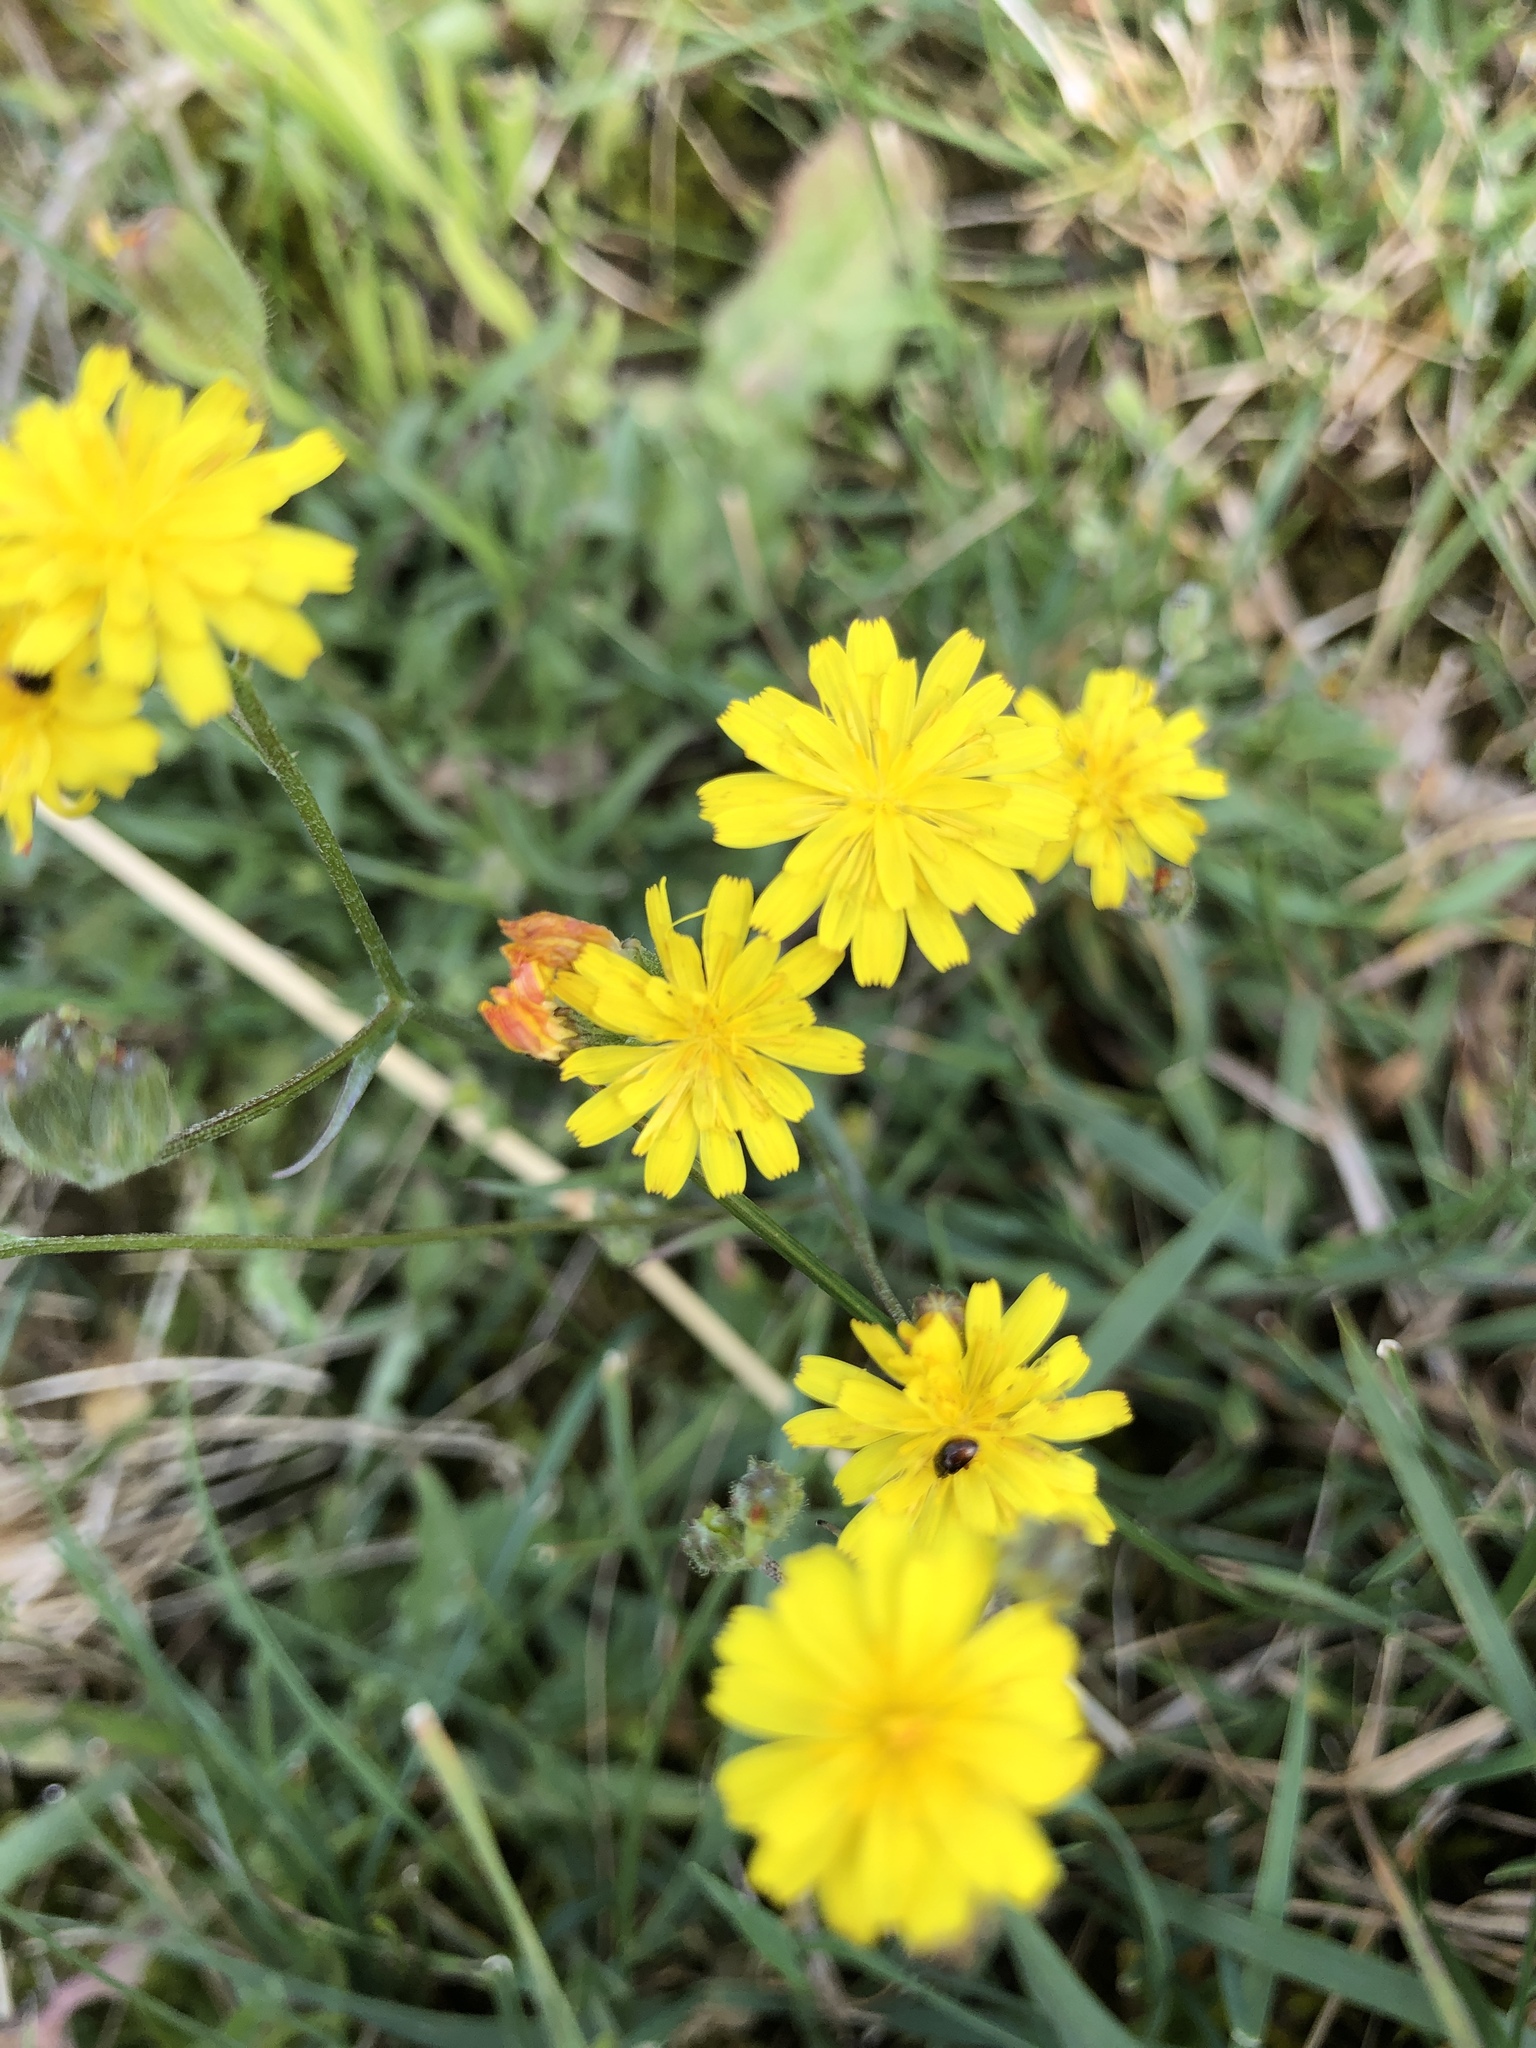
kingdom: Plantae
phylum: Tracheophyta
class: Magnoliopsida
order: Asterales
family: Asteraceae
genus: Crepis
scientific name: Crepis capillaris
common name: Smooth hawksbeard
